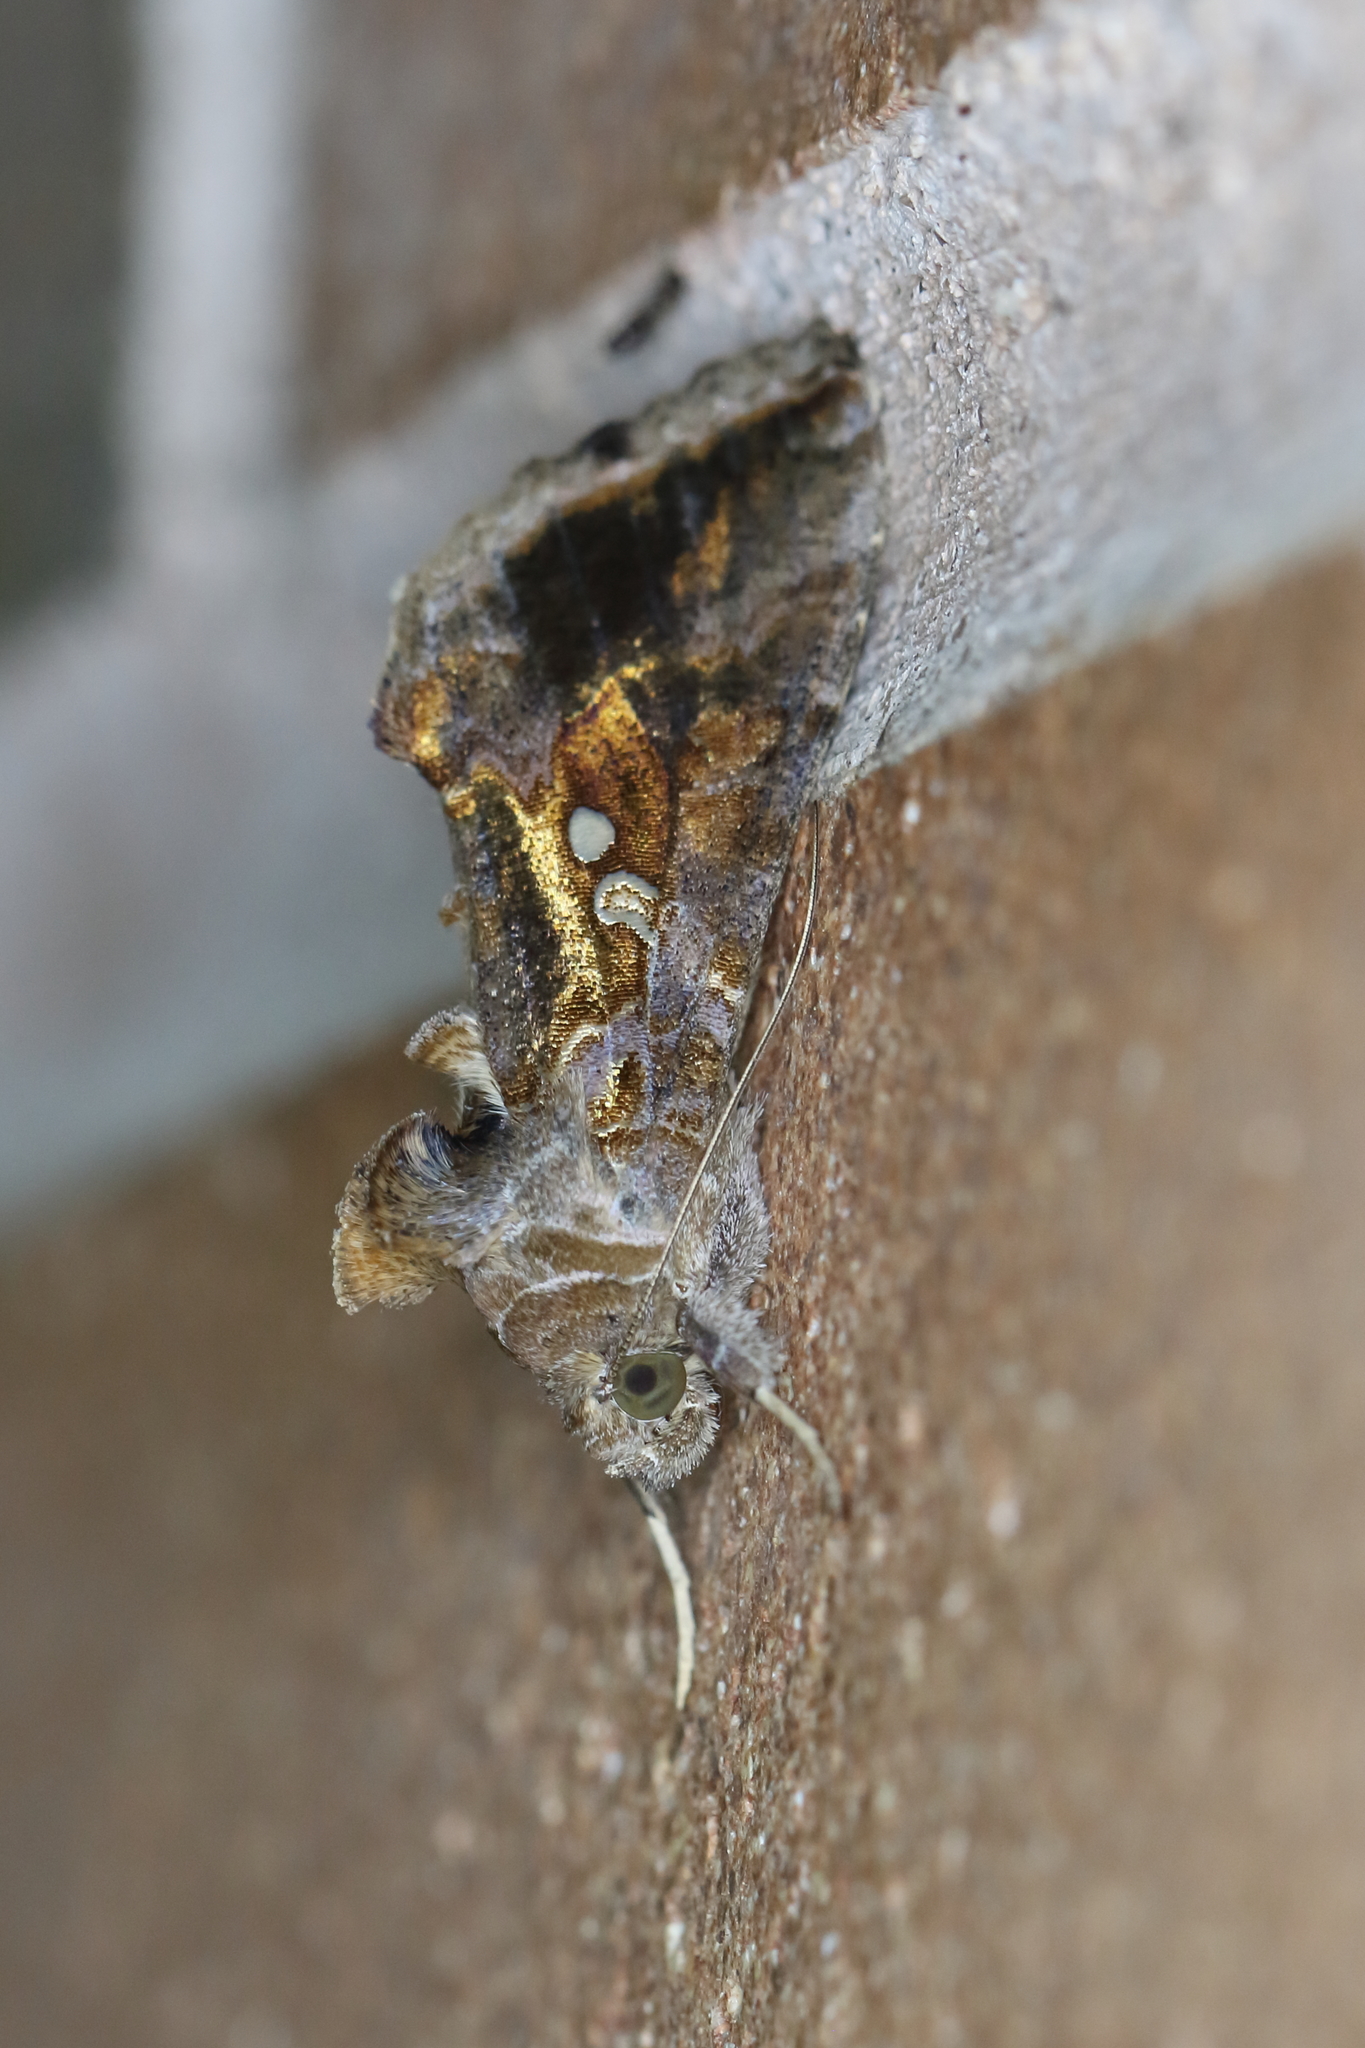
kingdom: Animalia
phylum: Arthropoda
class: Insecta
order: Lepidoptera
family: Noctuidae
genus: Chrysodeixis
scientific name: Chrysodeixis includens
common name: Cutworm moth
